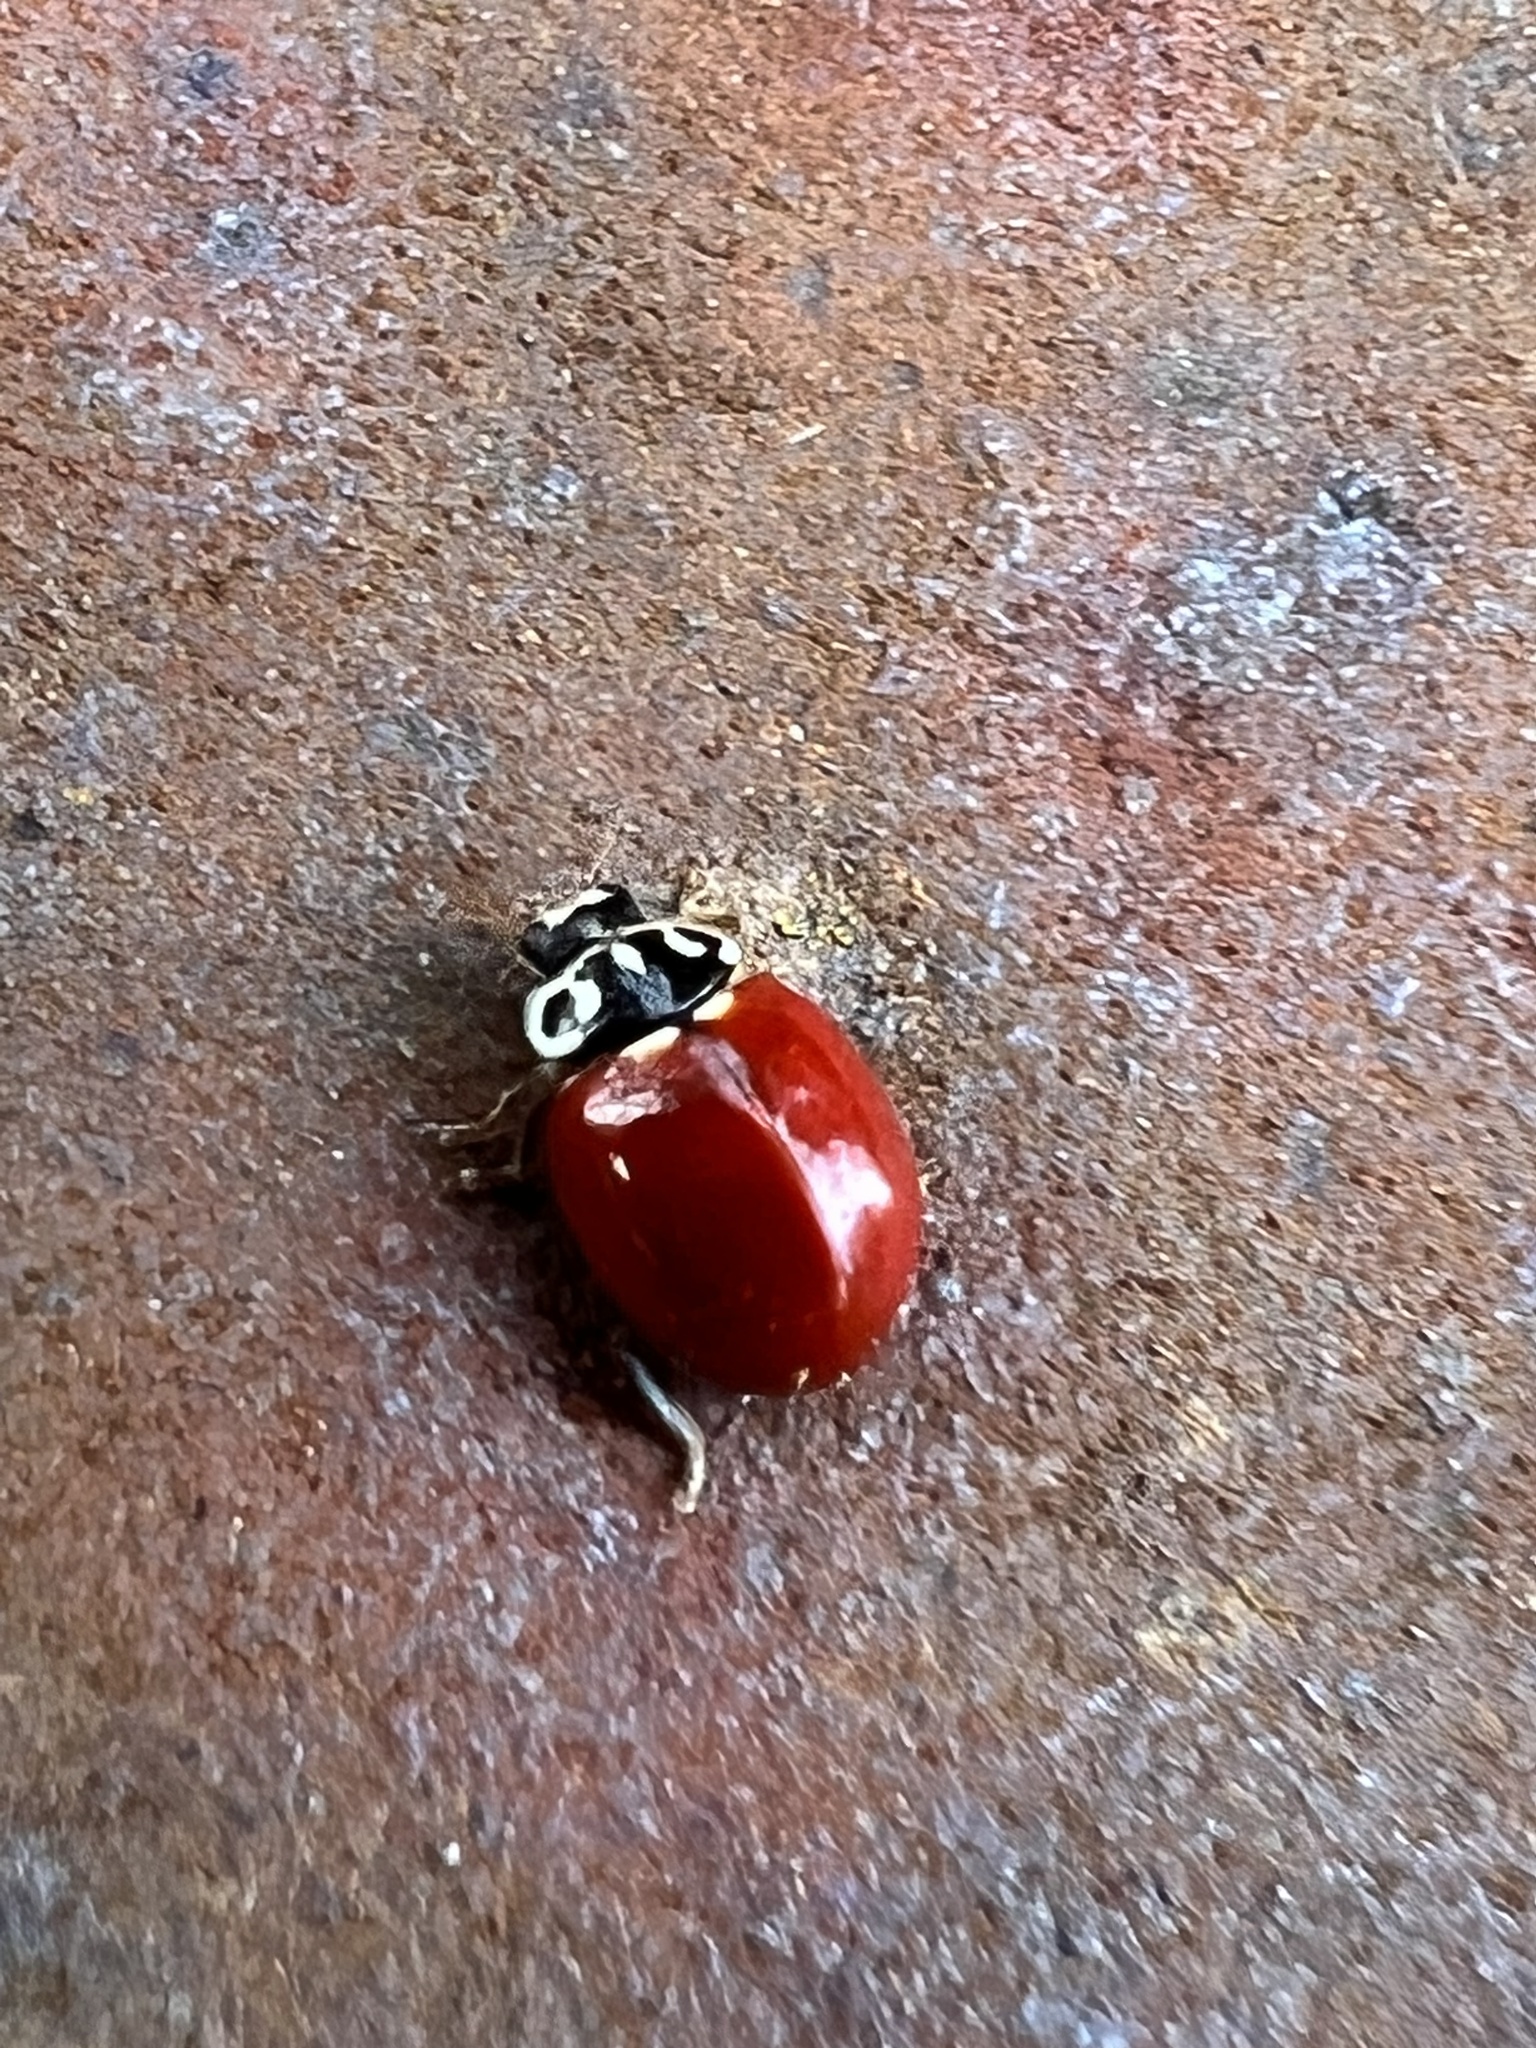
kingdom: Animalia
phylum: Arthropoda
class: Insecta
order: Coleoptera
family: Coccinellidae
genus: Cycloneda
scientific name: Cycloneda polita
